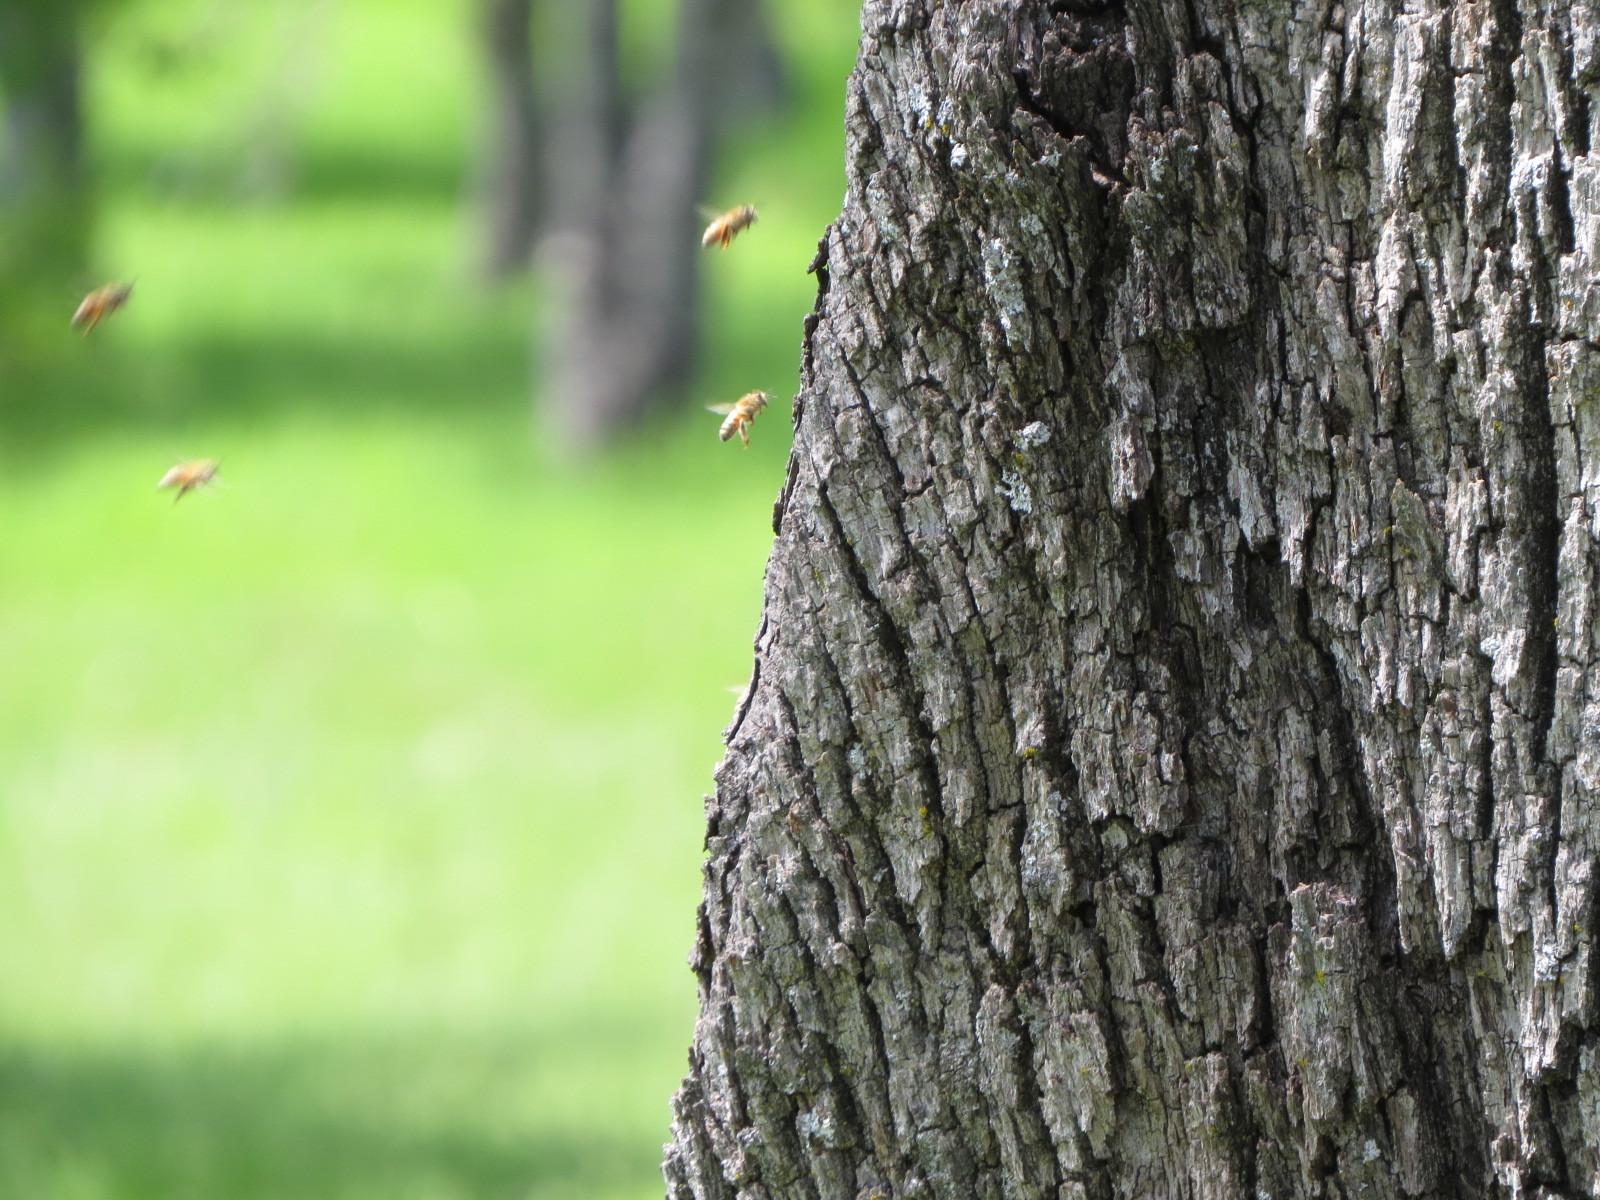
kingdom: Animalia
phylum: Arthropoda
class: Insecta
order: Hymenoptera
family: Apidae
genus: Apis
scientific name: Apis mellifera
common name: Honey bee
